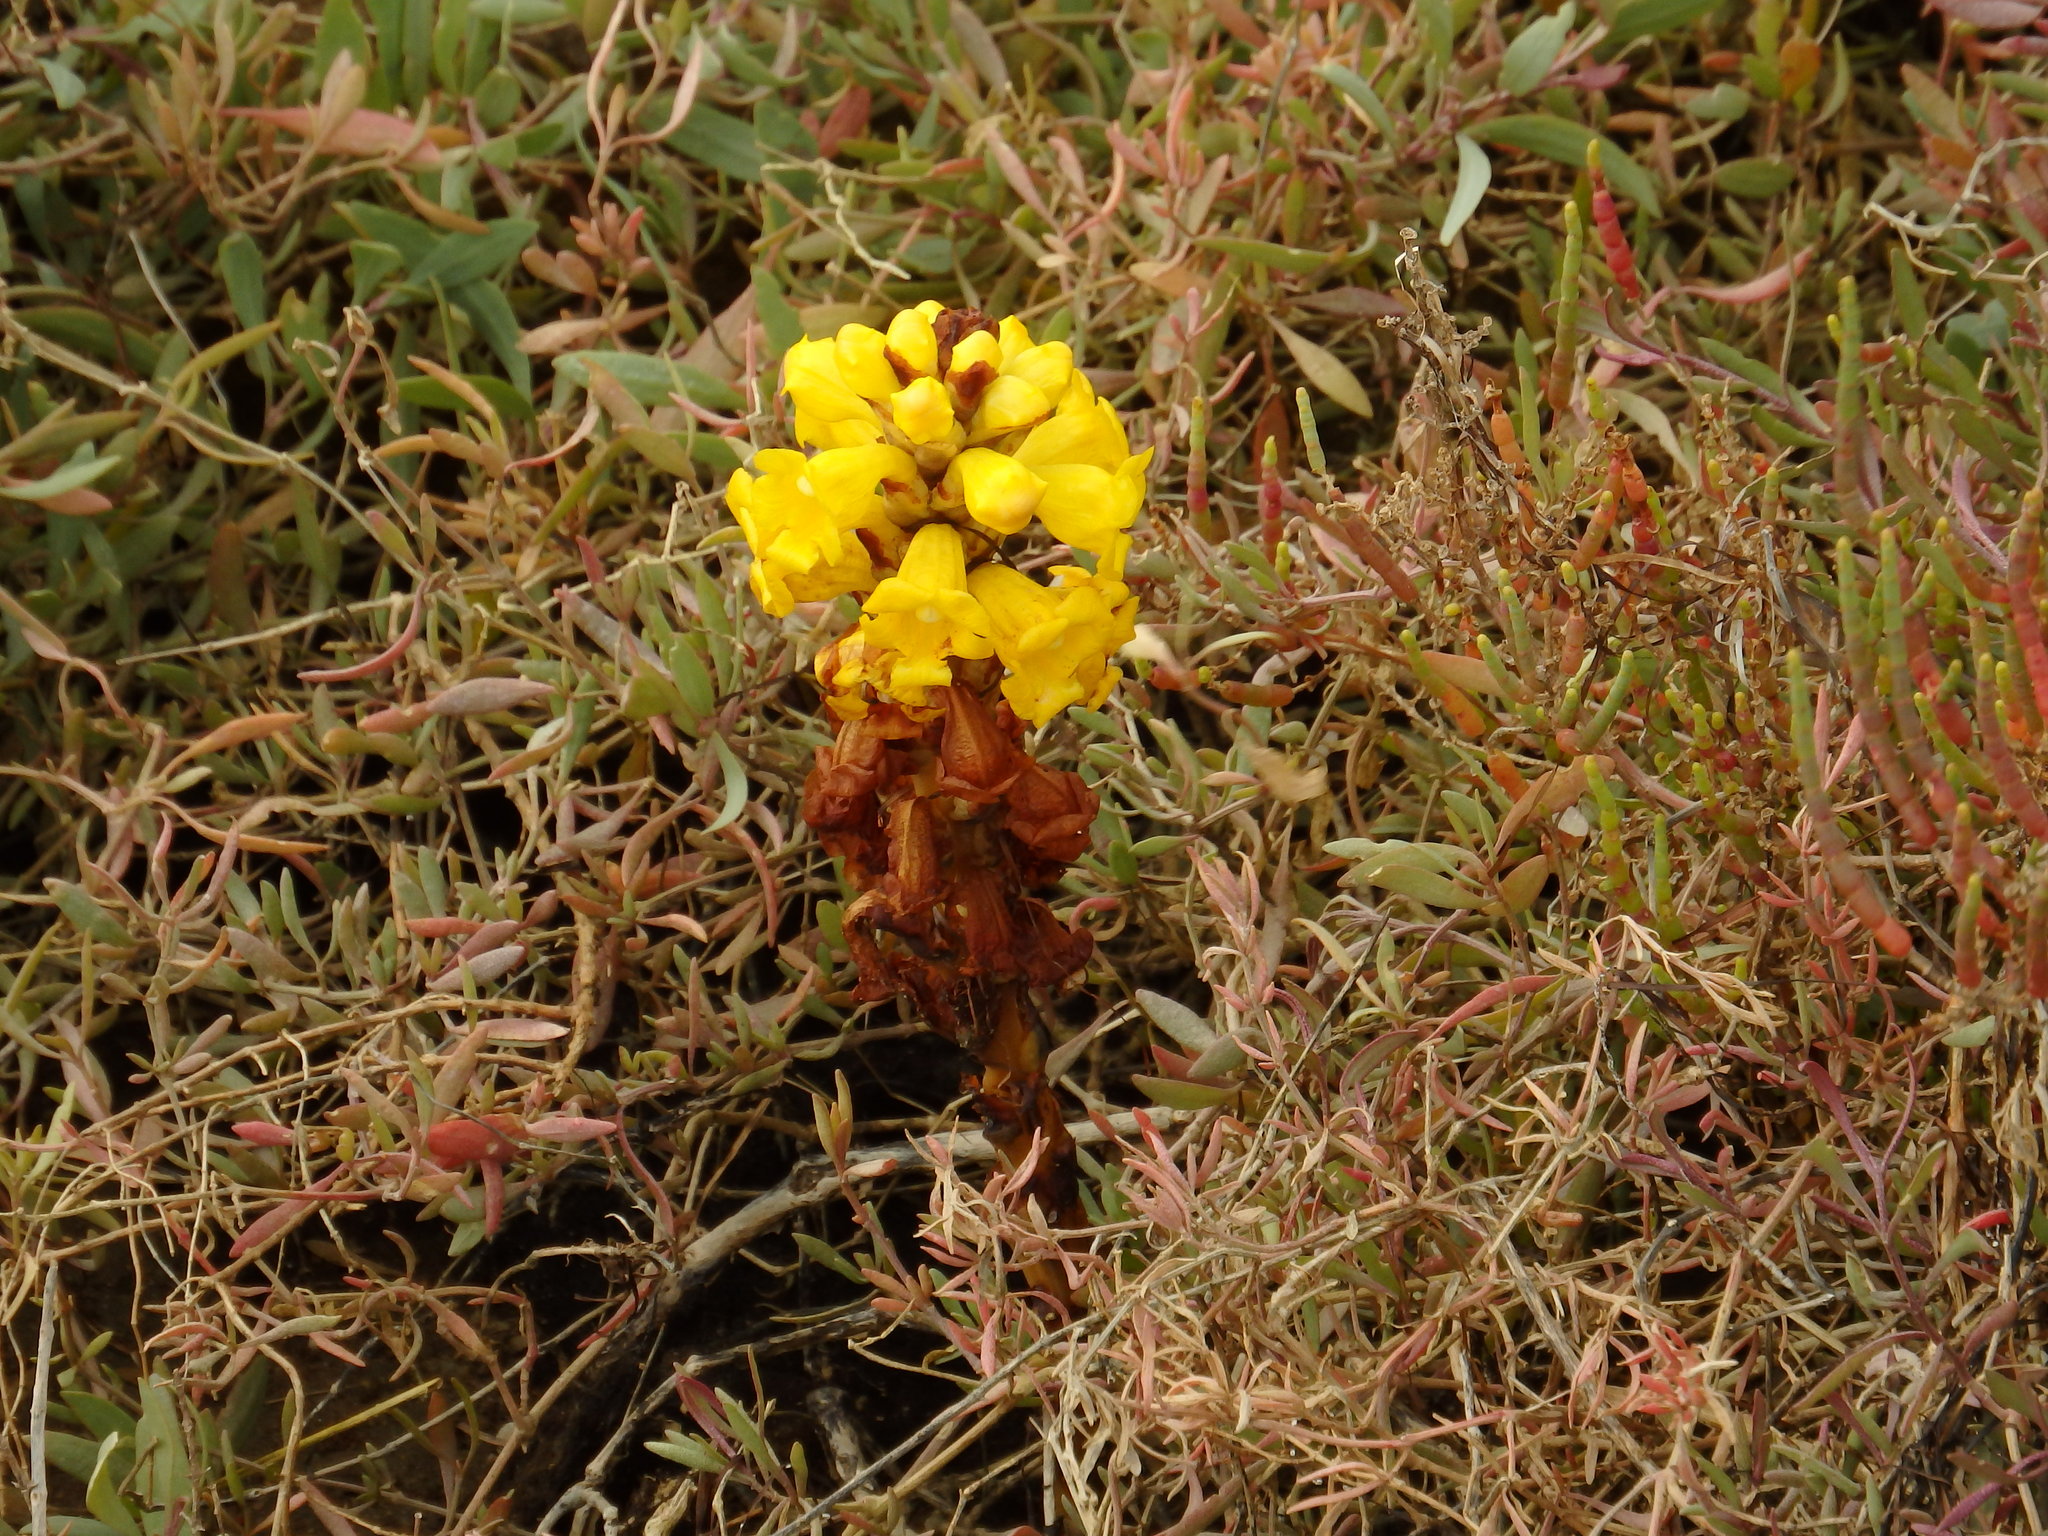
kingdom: Plantae
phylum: Tracheophyta
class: Magnoliopsida
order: Lamiales
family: Orobanchaceae
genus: Cistanche
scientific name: Cistanche phelypaea
